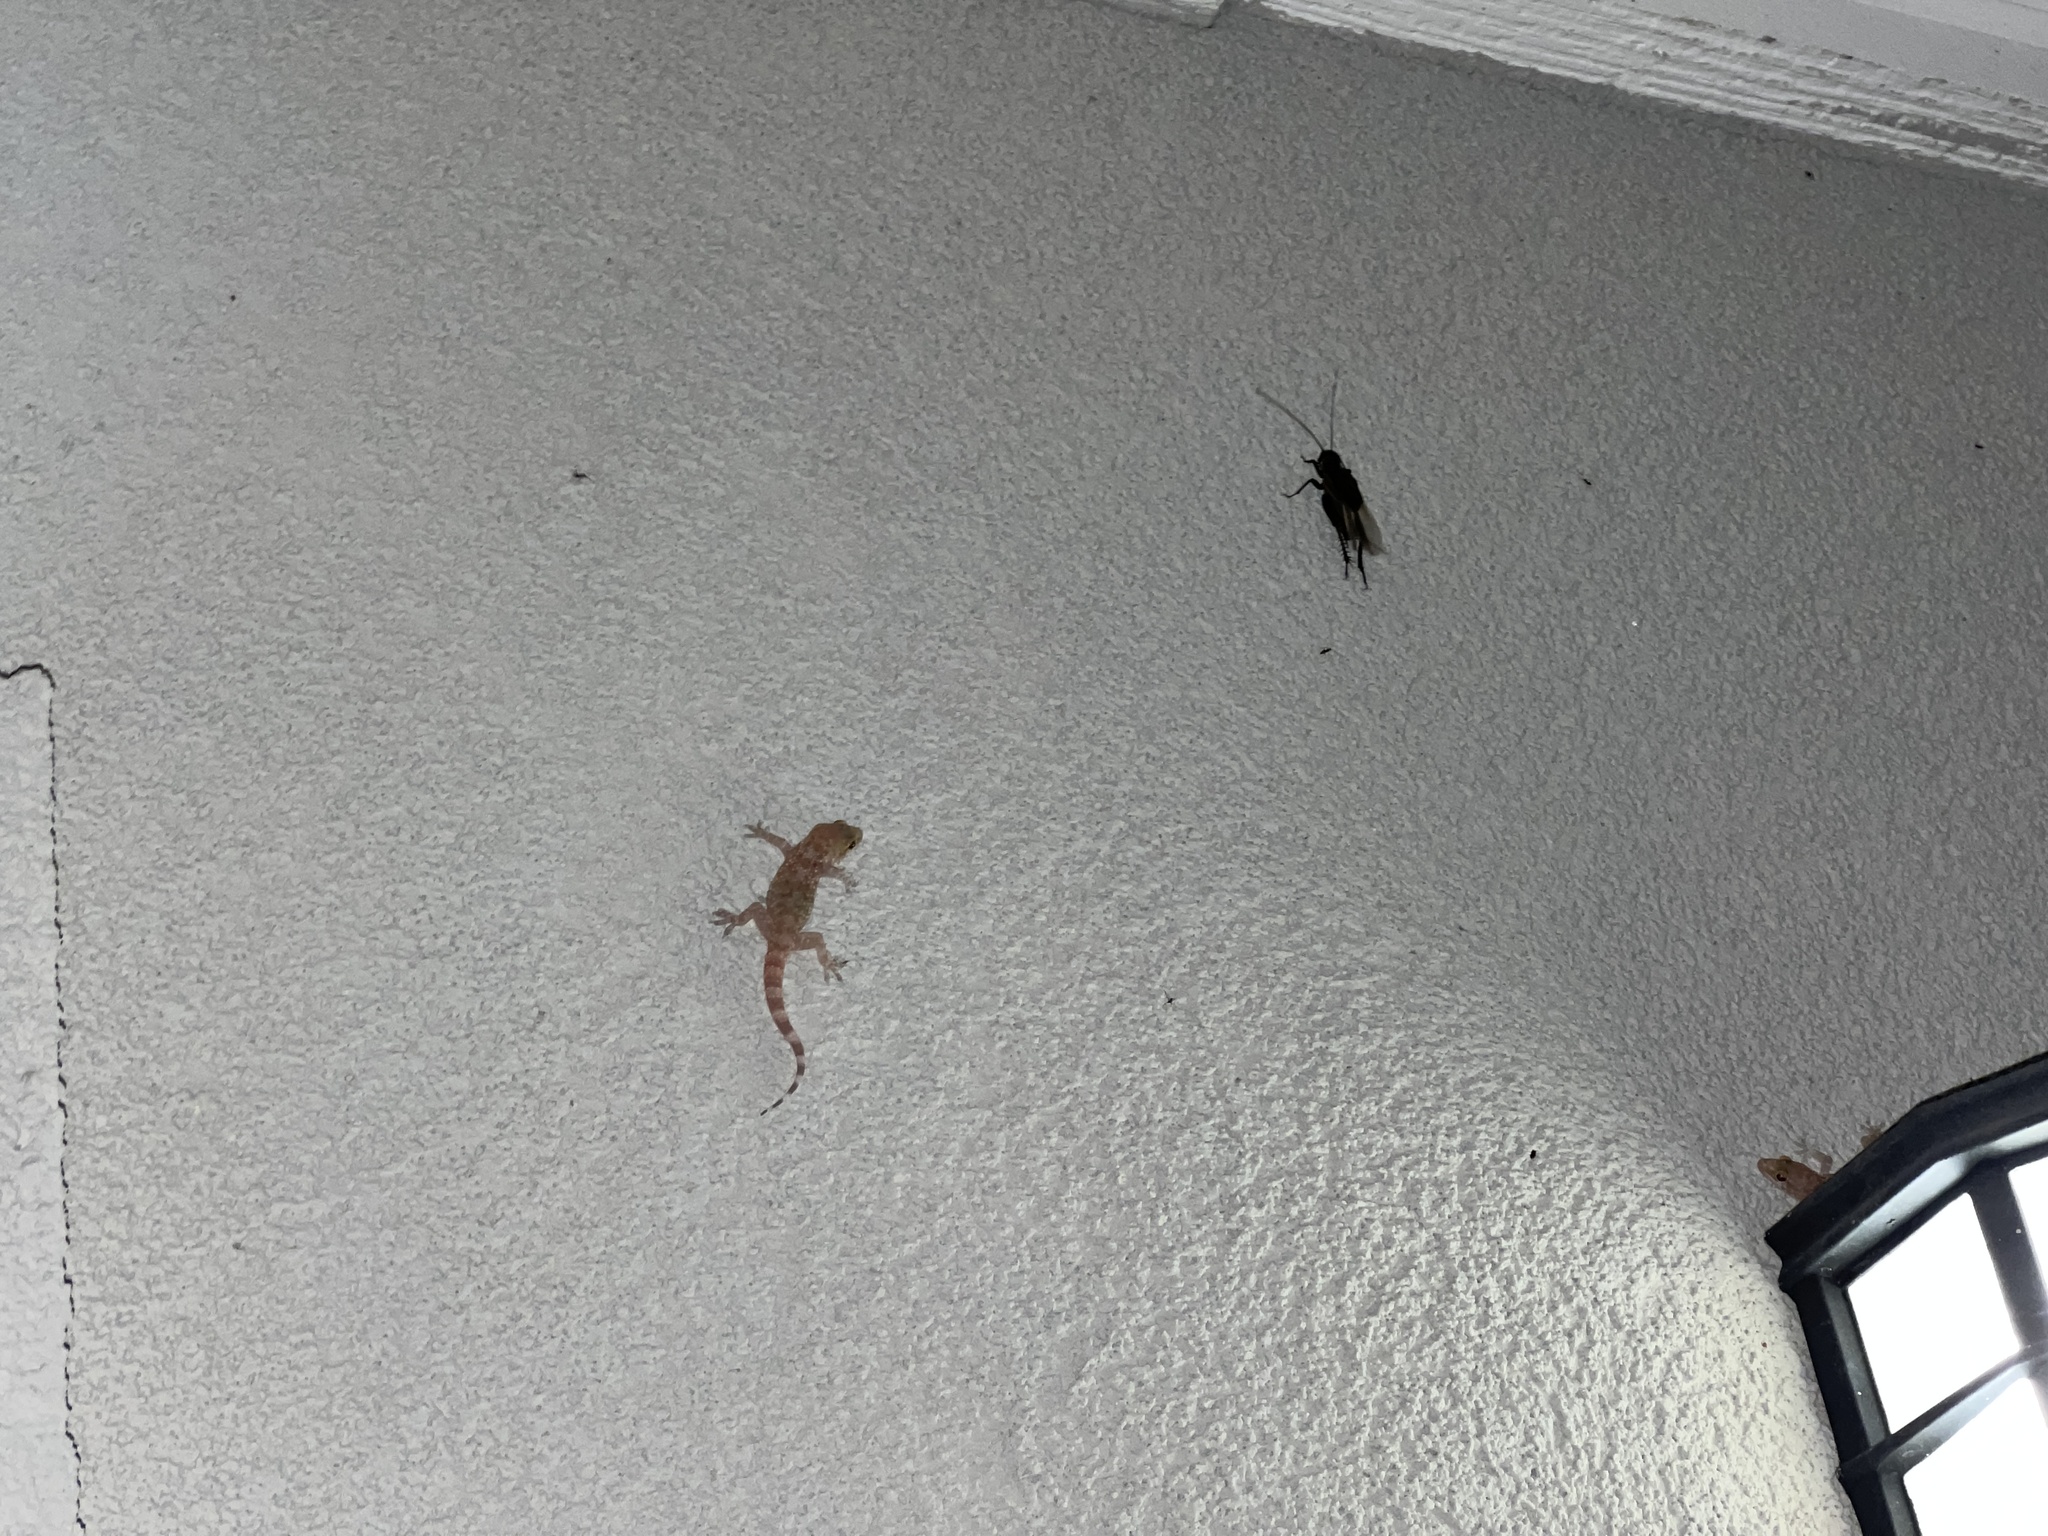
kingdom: Animalia
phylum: Chordata
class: Squamata
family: Gekkonidae
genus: Hemidactylus
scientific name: Hemidactylus turcicus
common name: Turkish gecko
